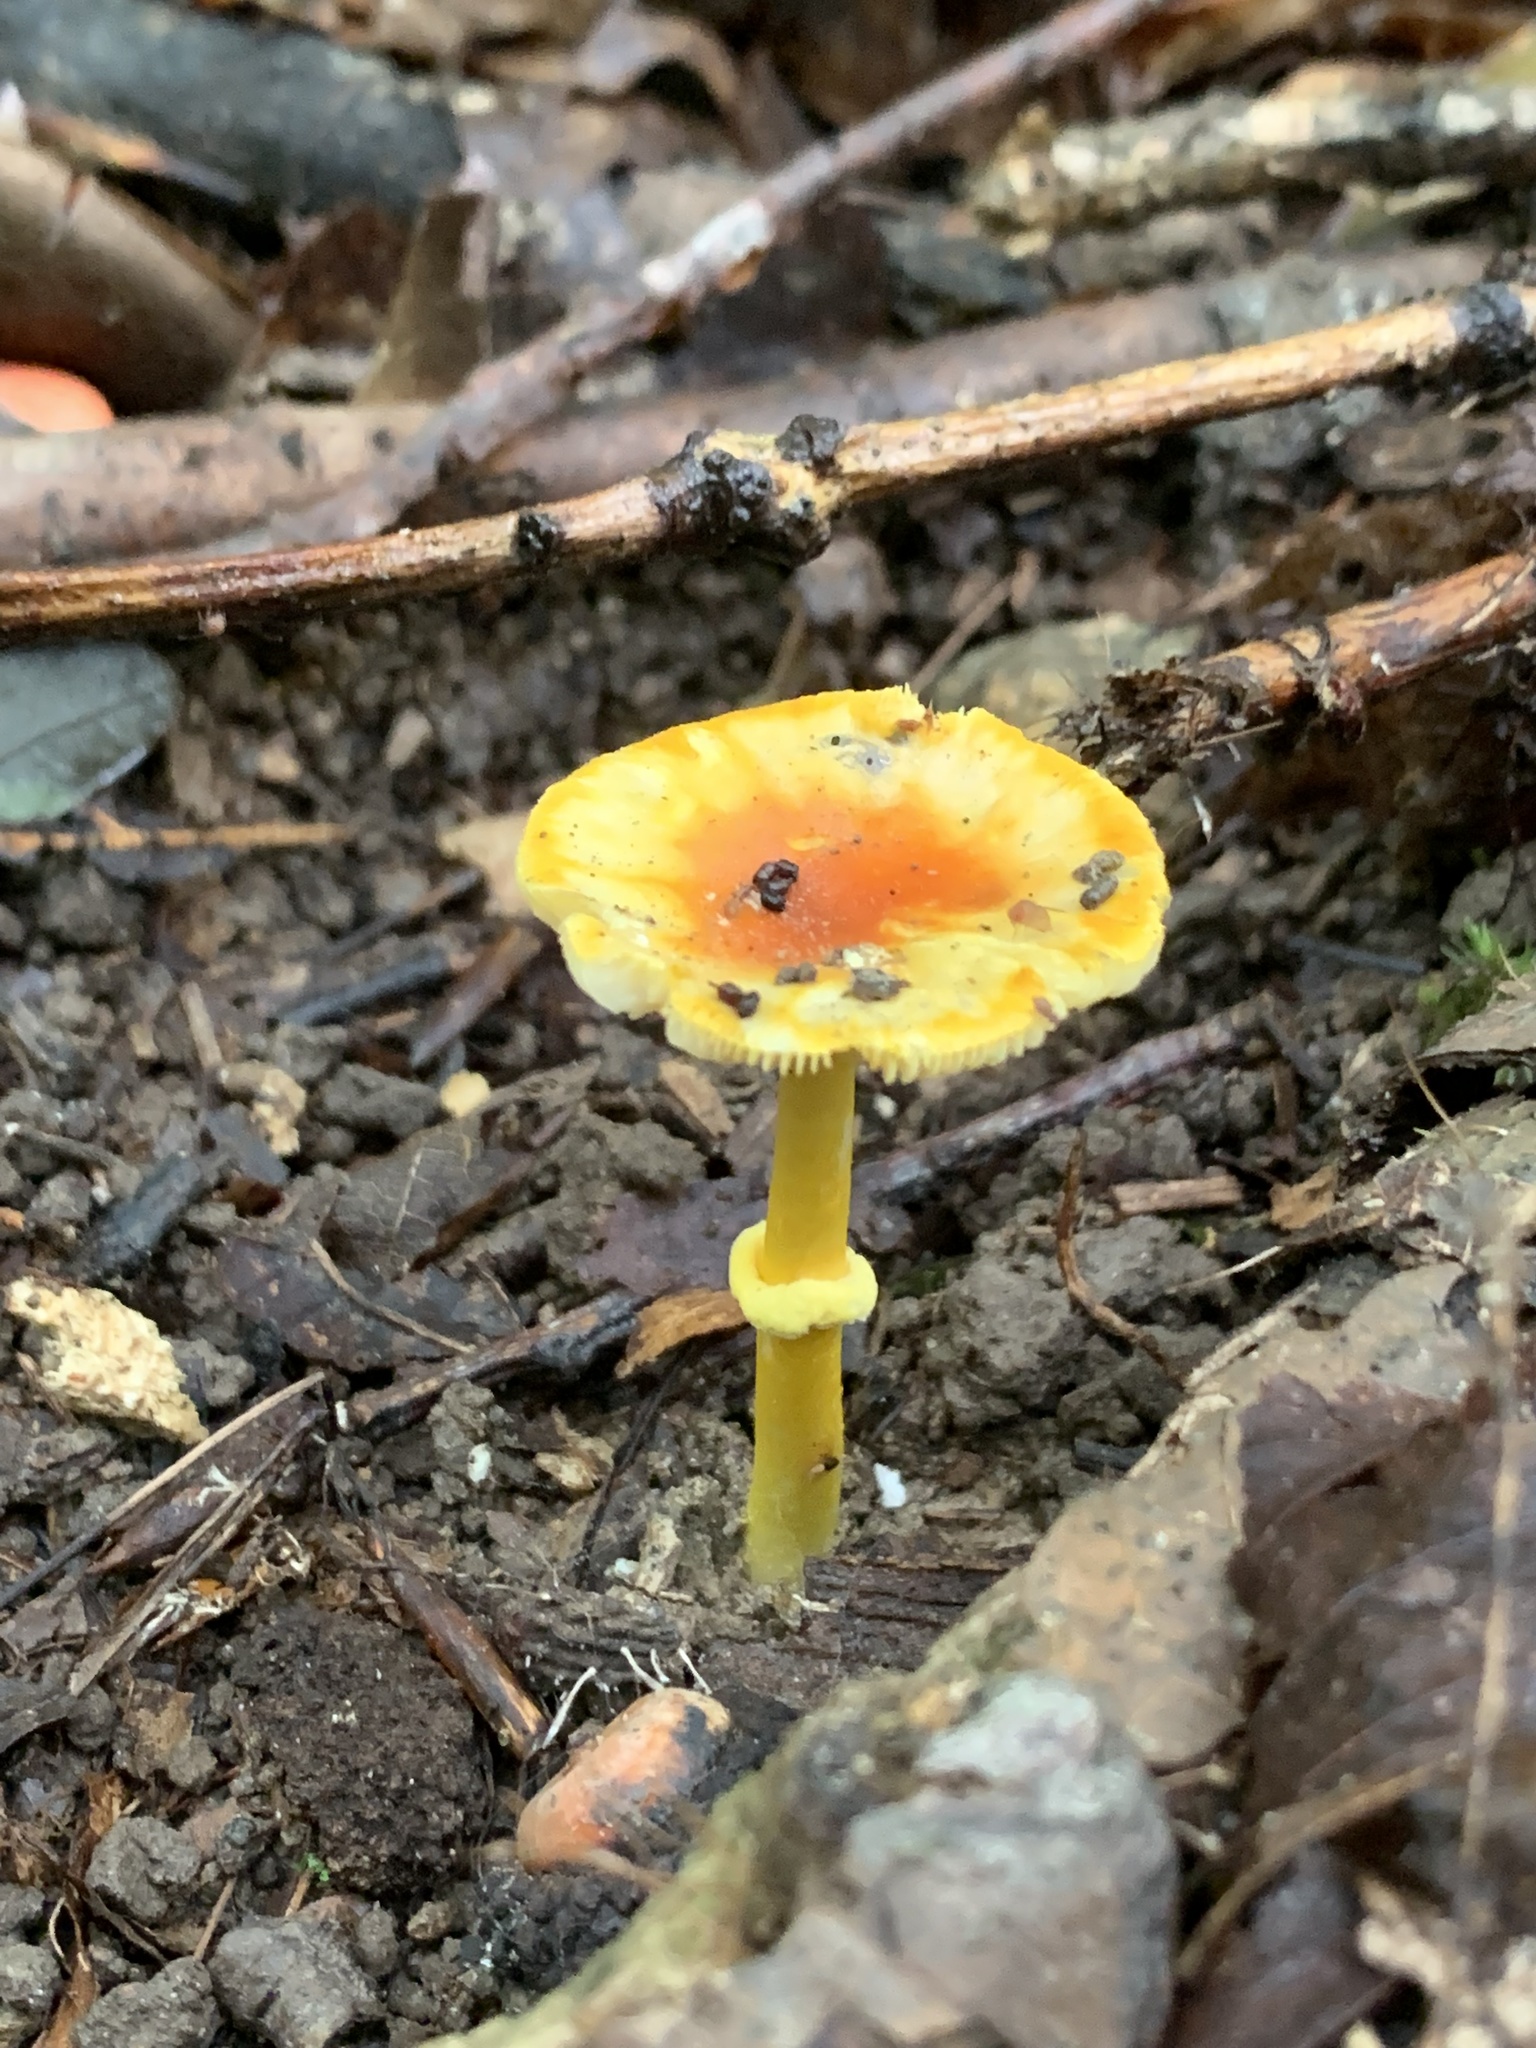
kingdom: Fungi
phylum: Basidiomycota
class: Agaricomycetes
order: Agaricales
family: Amanitaceae
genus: Amanita
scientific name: Amanita flavoconia
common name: Yellow patches
